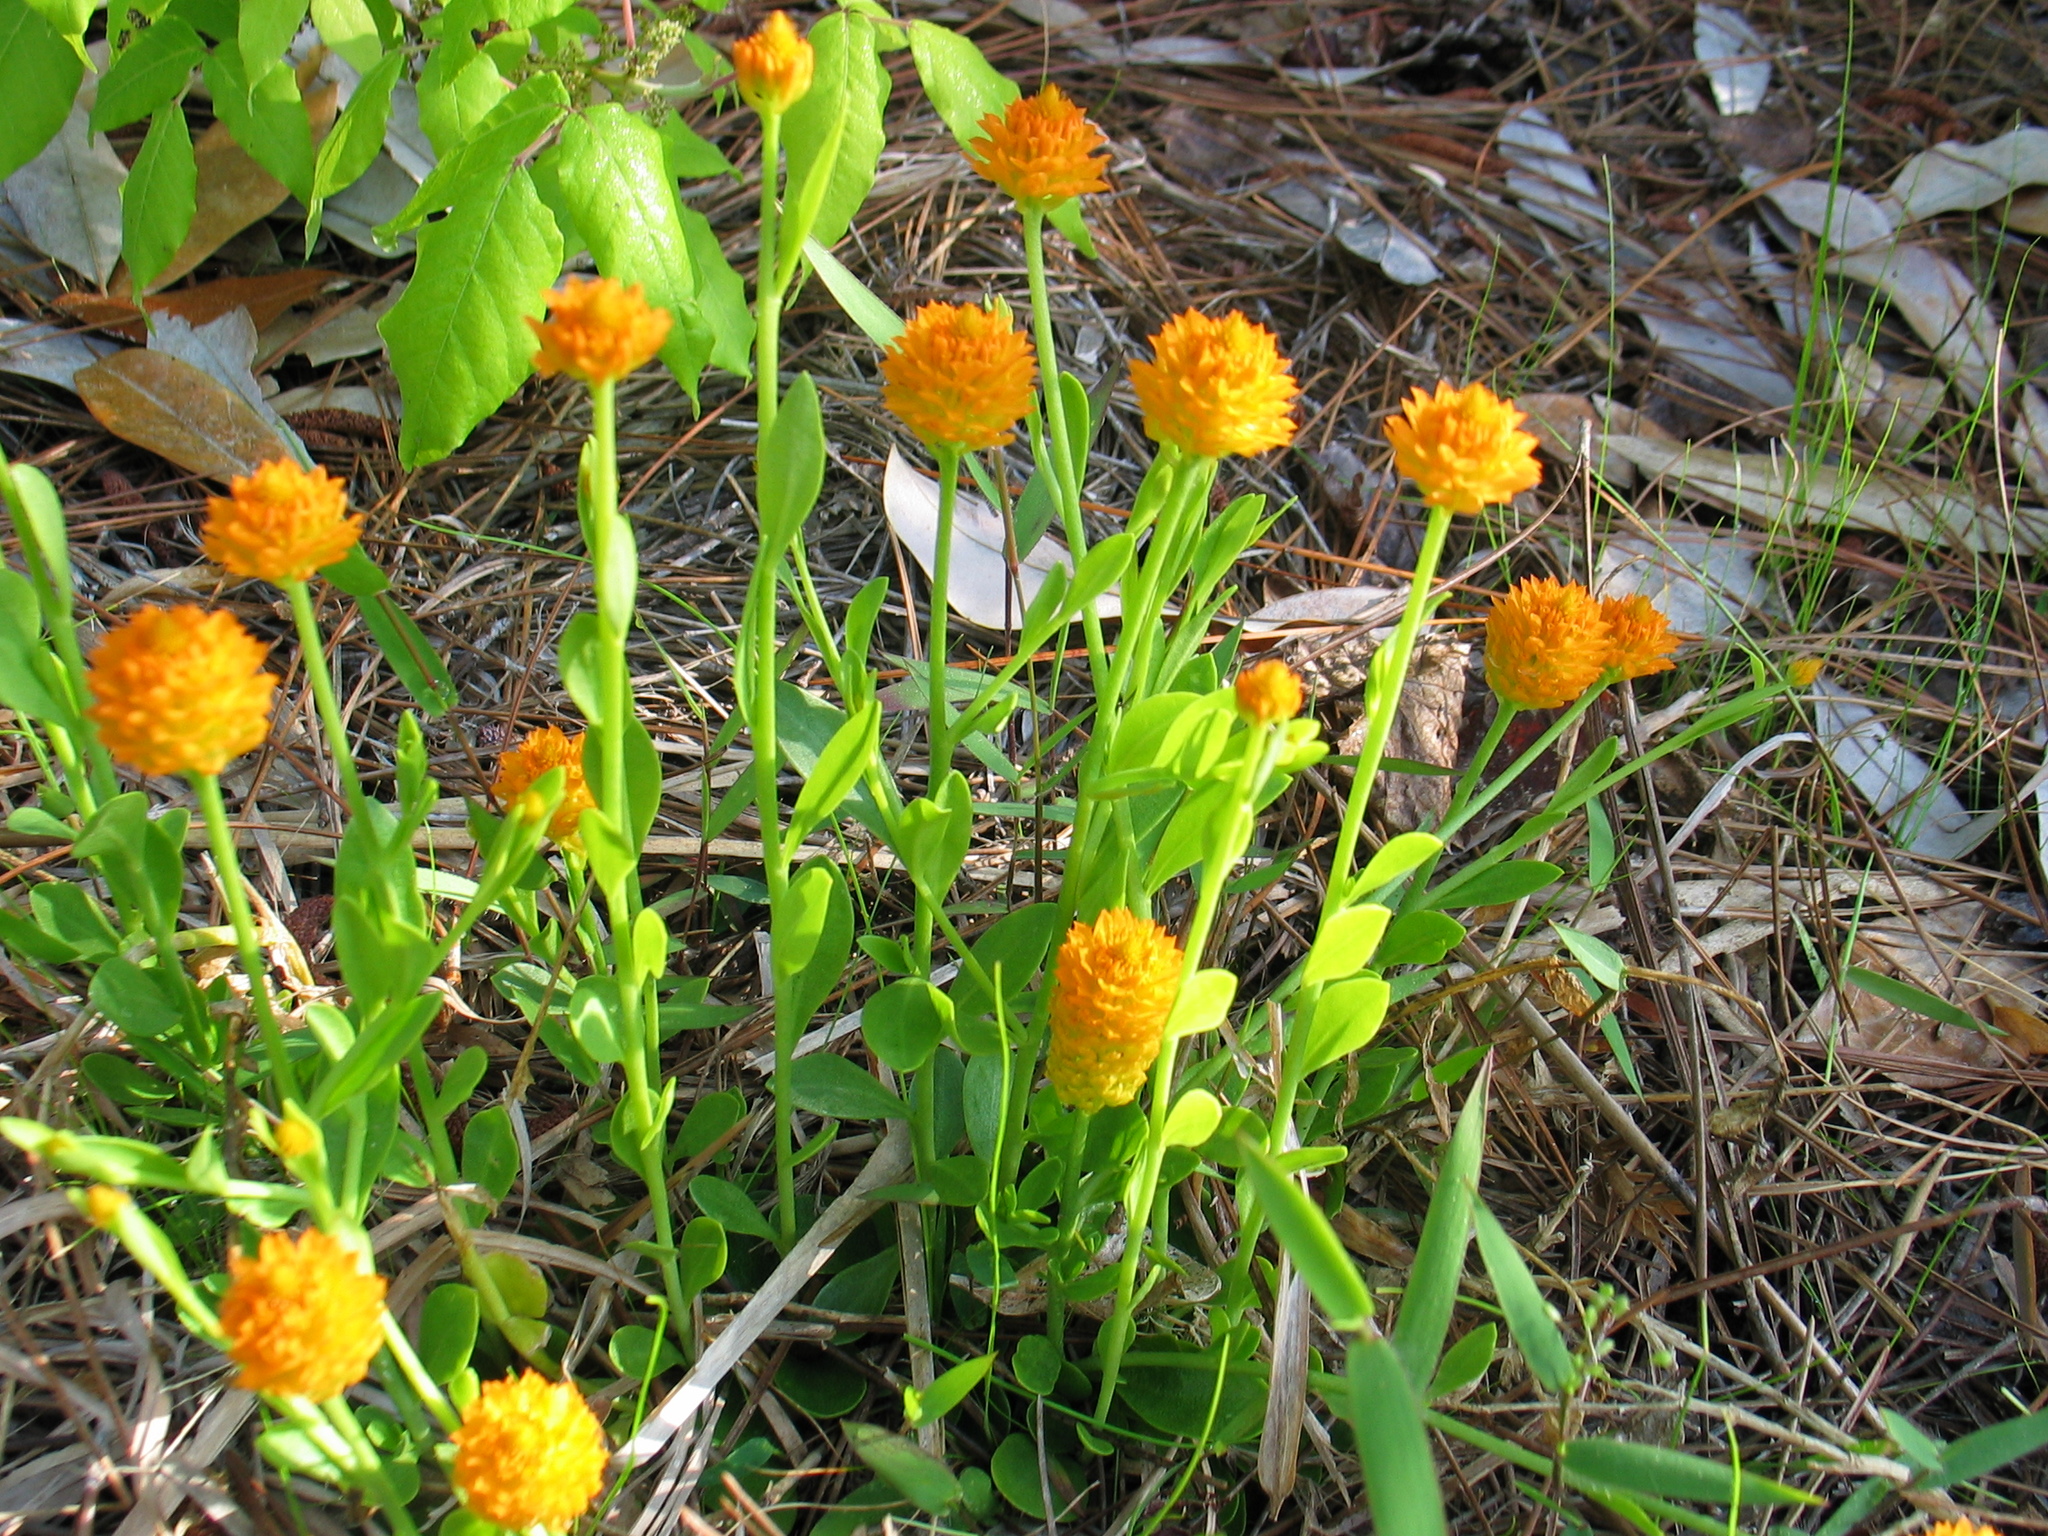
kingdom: Plantae
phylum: Tracheophyta
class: Magnoliopsida
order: Fabales
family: Polygalaceae
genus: Polygala
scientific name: Polygala lutea
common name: Orange milkwort
